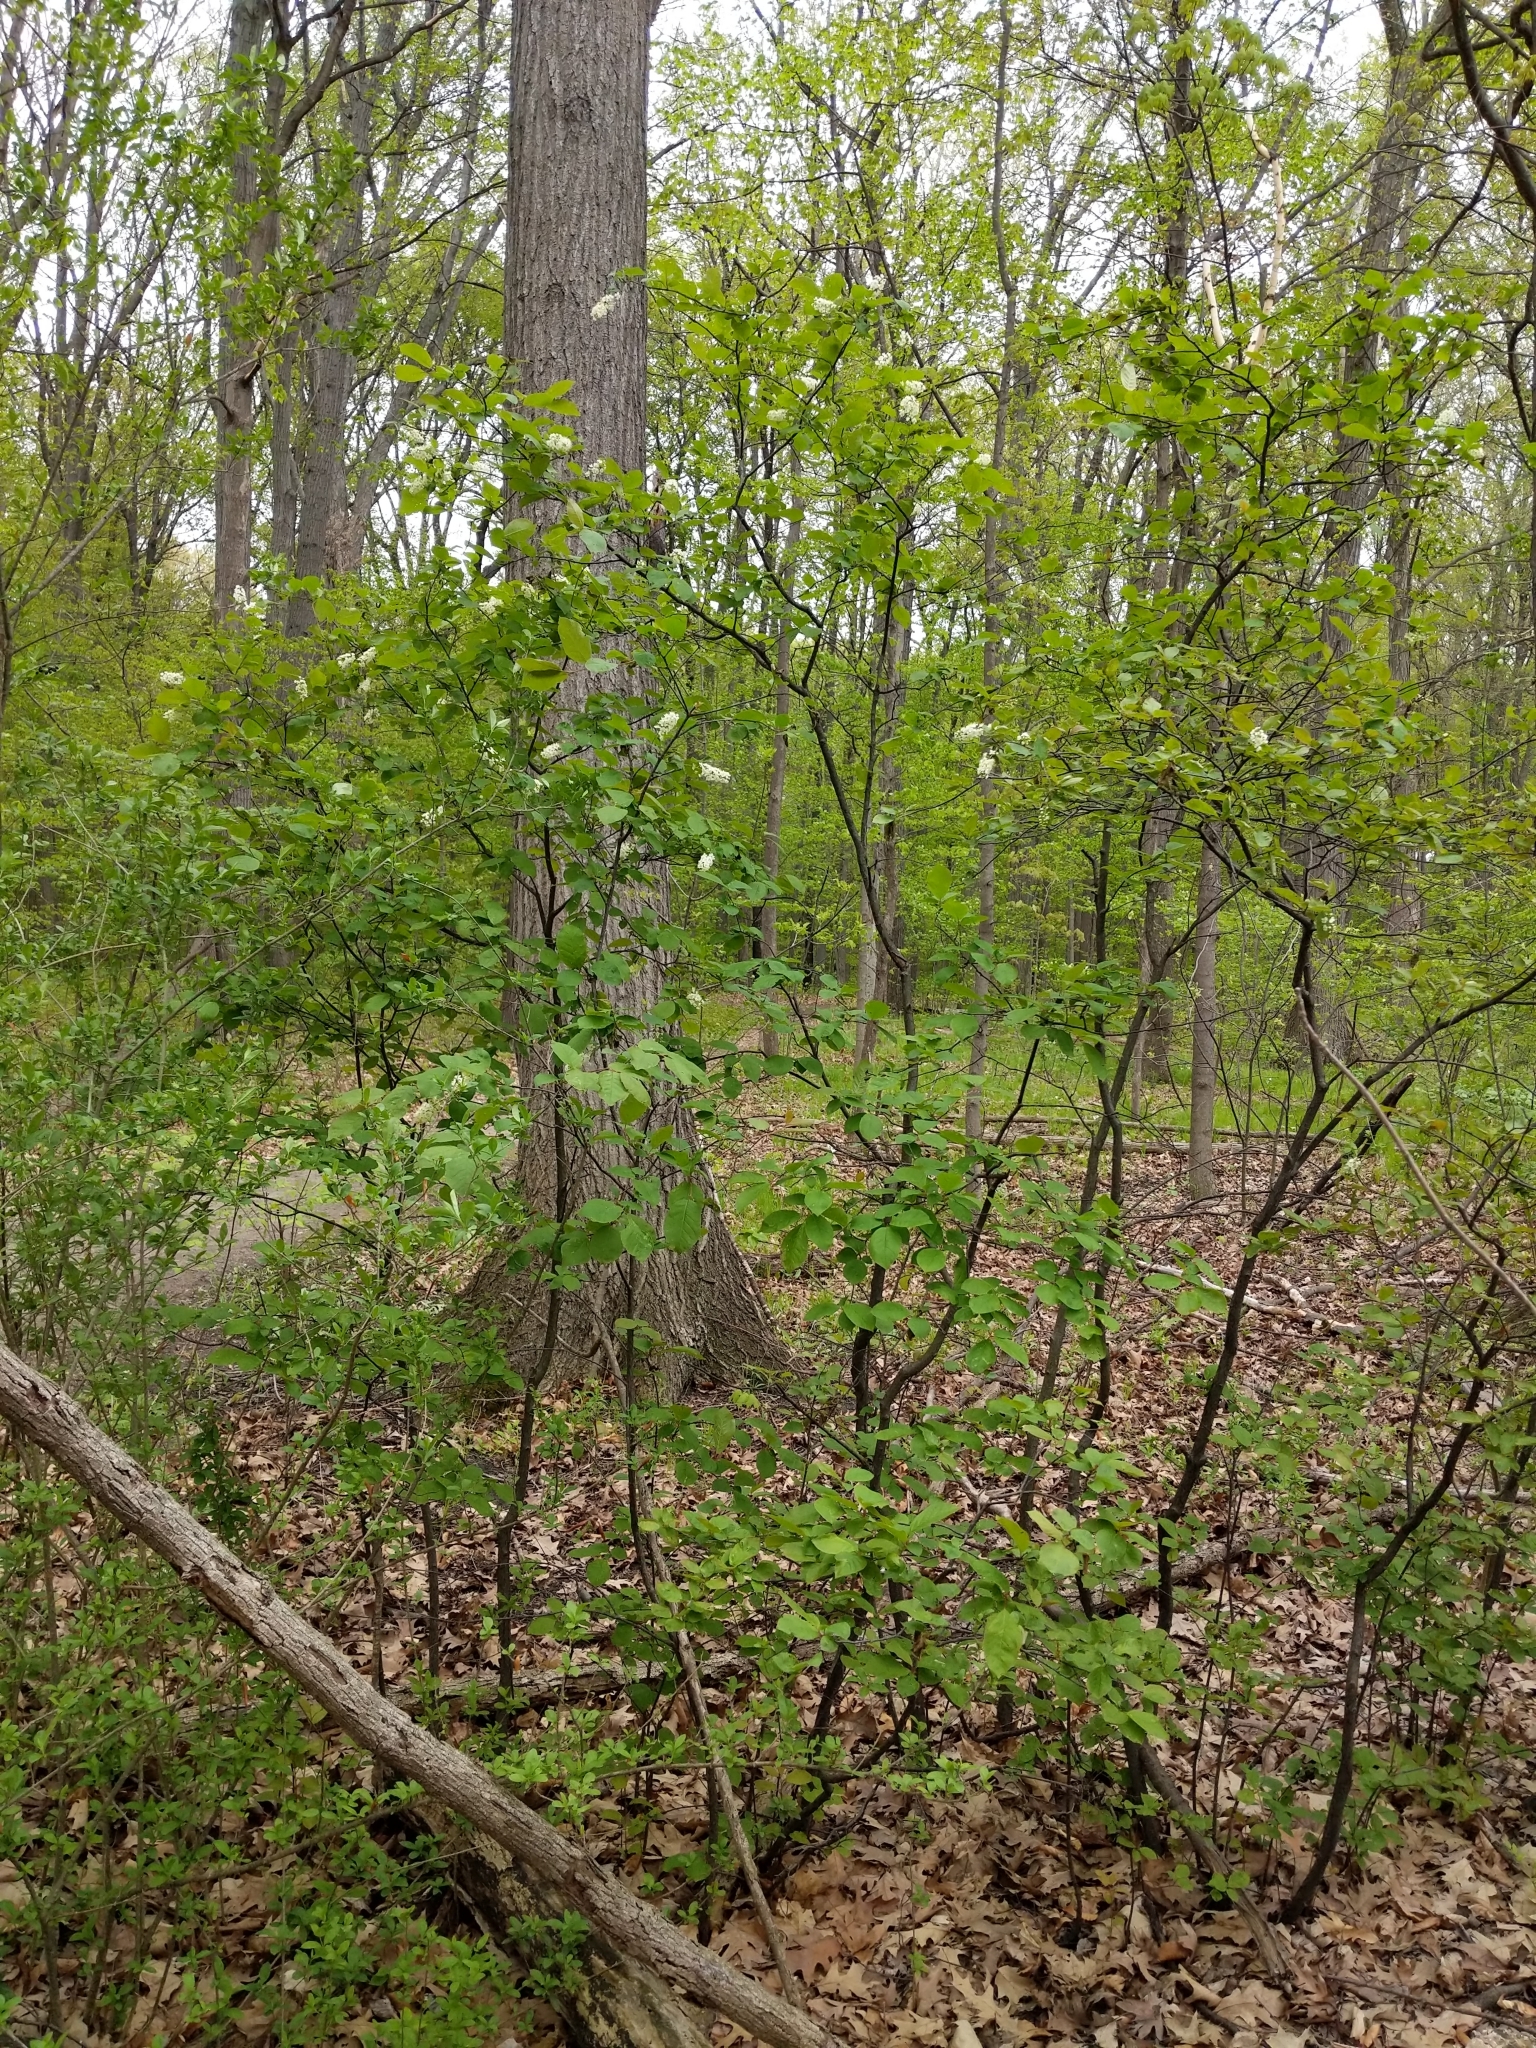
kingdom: Plantae
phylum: Tracheophyta
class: Magnoliopsida
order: Rosales
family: Rosaceae
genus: Prunus
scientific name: Prunus virginiana
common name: Chokecherry
